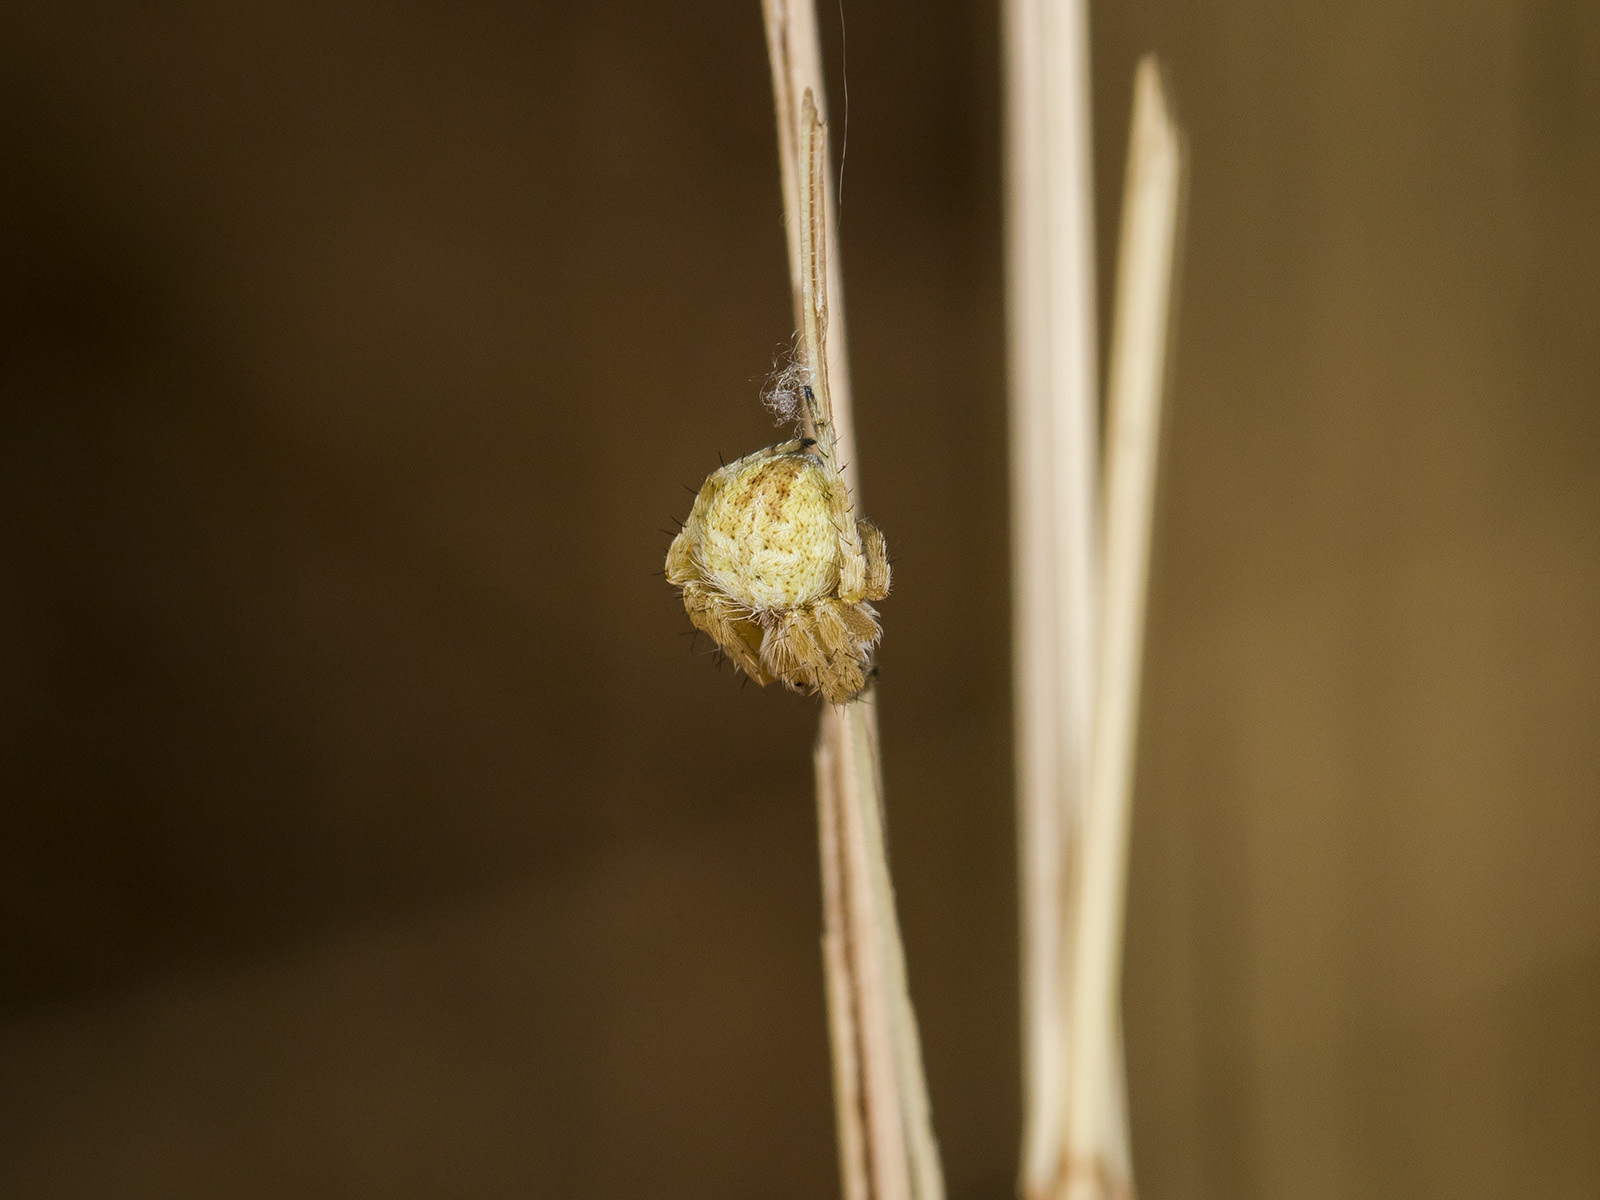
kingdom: Animalia
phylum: Arthropoda
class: Arachnida
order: Araneae
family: Araneidae
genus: Agalenatea
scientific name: Agalenatea redii
